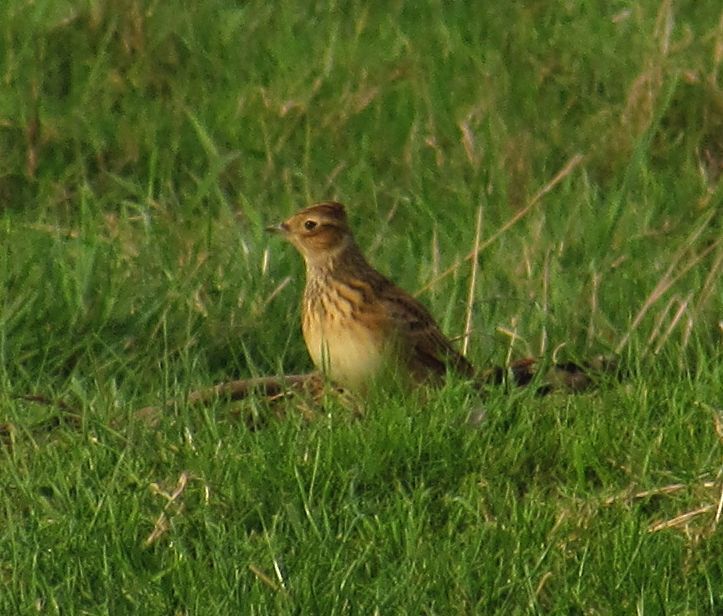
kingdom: Animalia
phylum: Chordata
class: Aves
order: Passeriformes
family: Alaudidae
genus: Alauda
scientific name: Alauda arvensis
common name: Eurasian skylark
